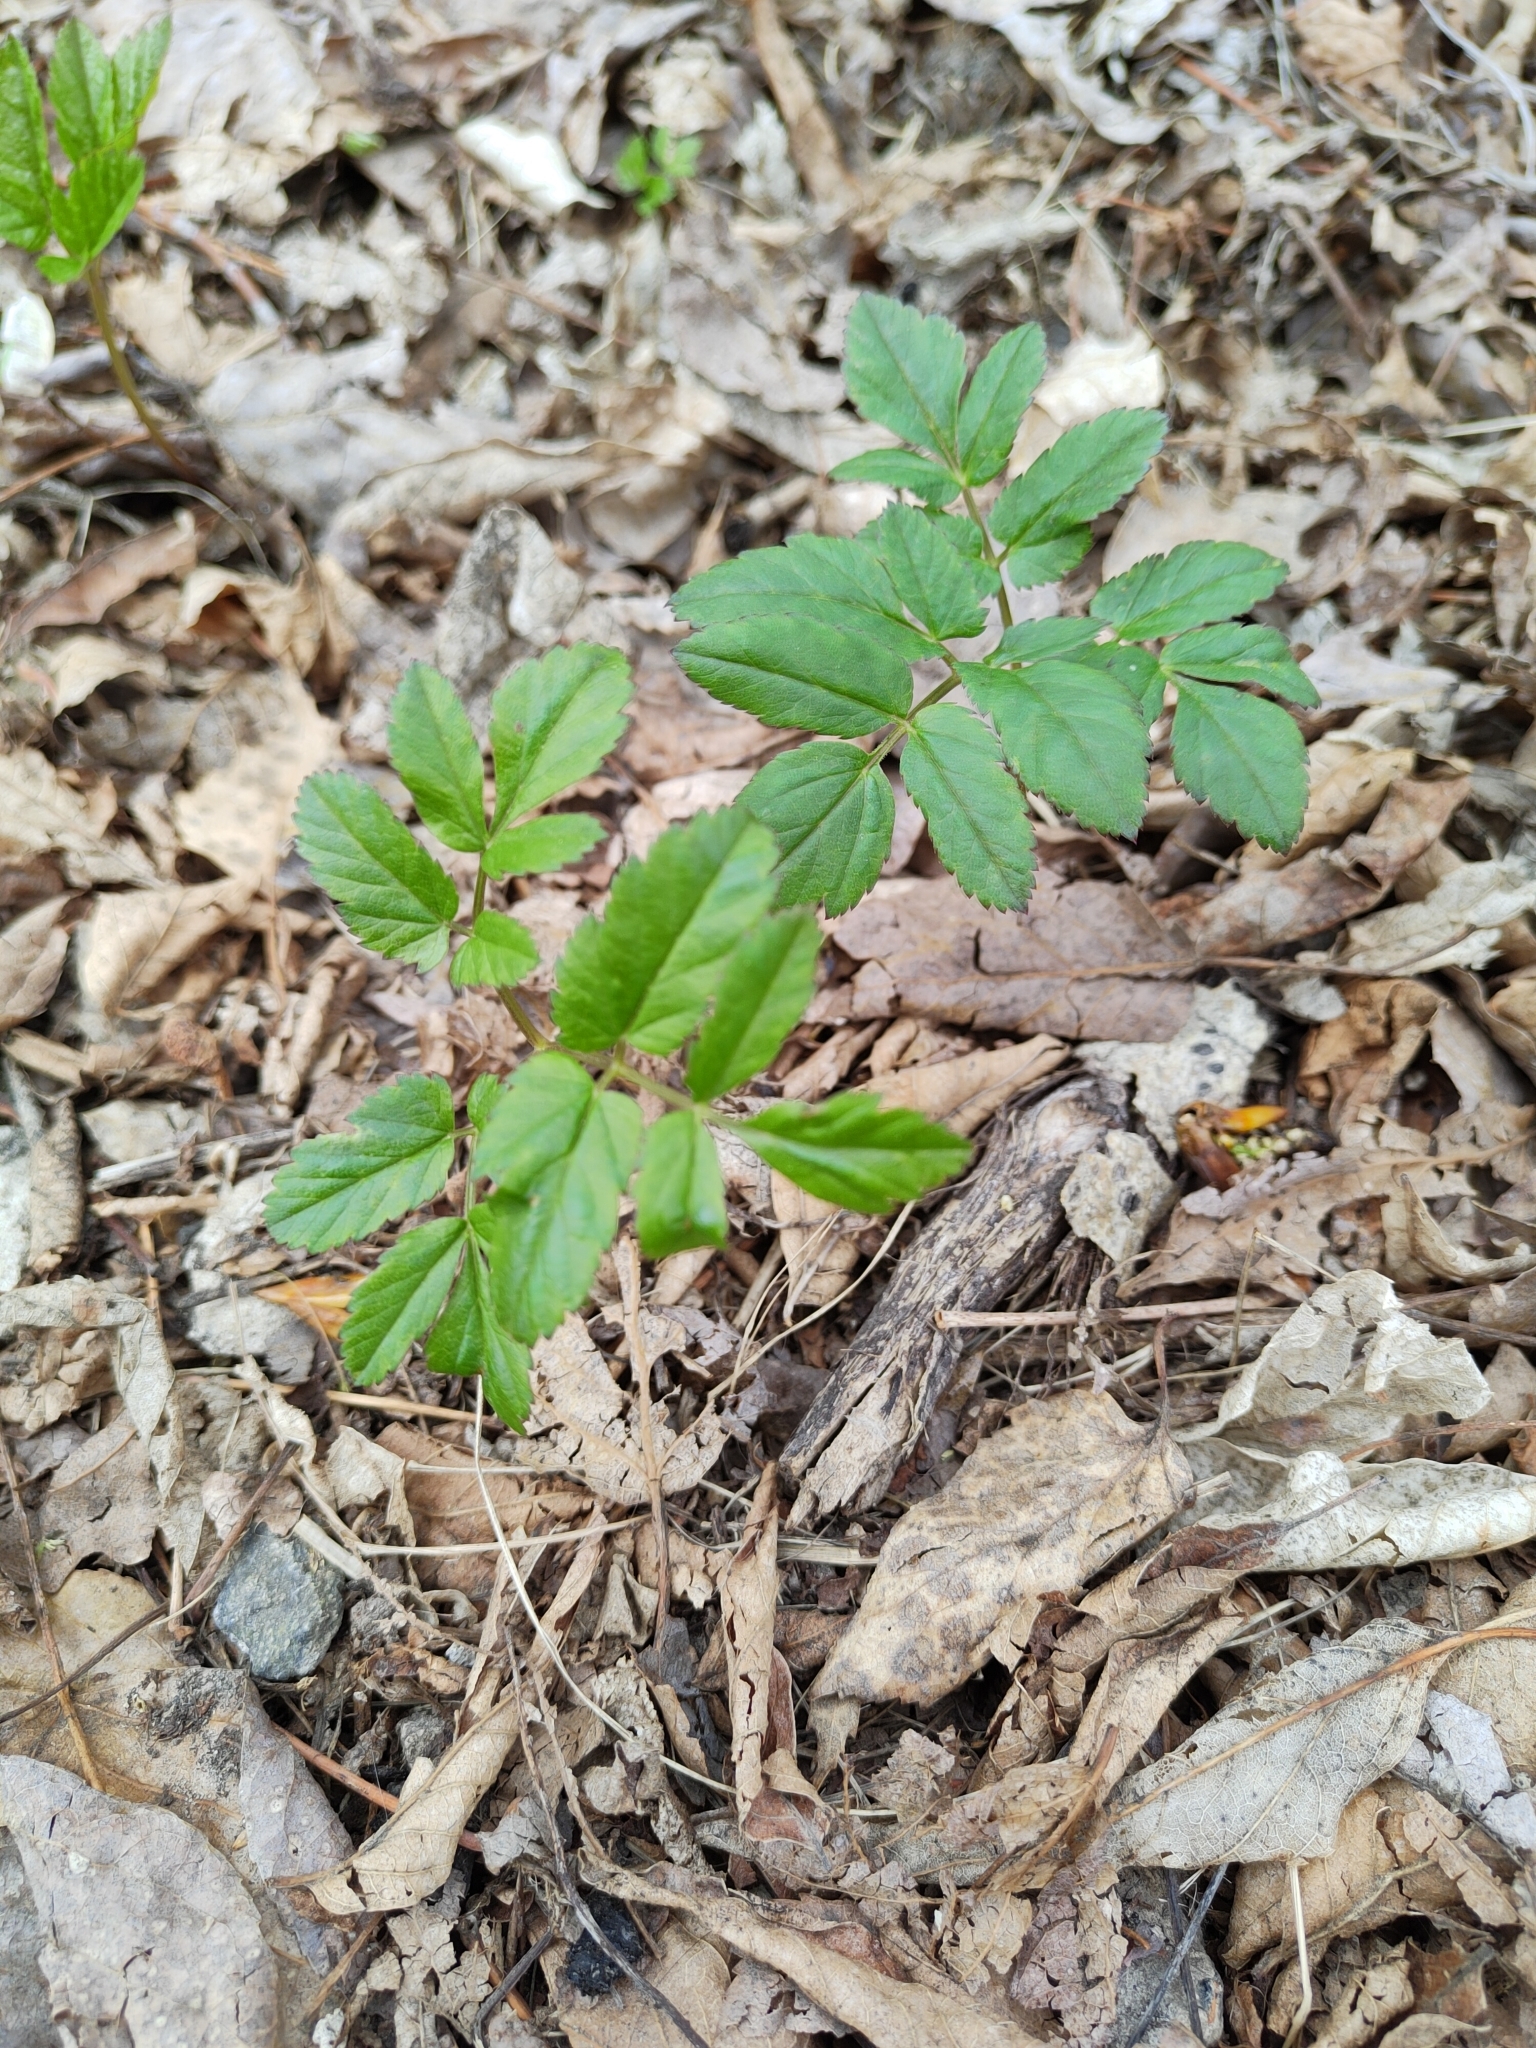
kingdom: Plantae
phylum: Tracheophyta
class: Magnoliopsida
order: Apiales
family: Apiaceae
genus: Aegopodium
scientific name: Aegopodium podagraria
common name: Ground-elder
